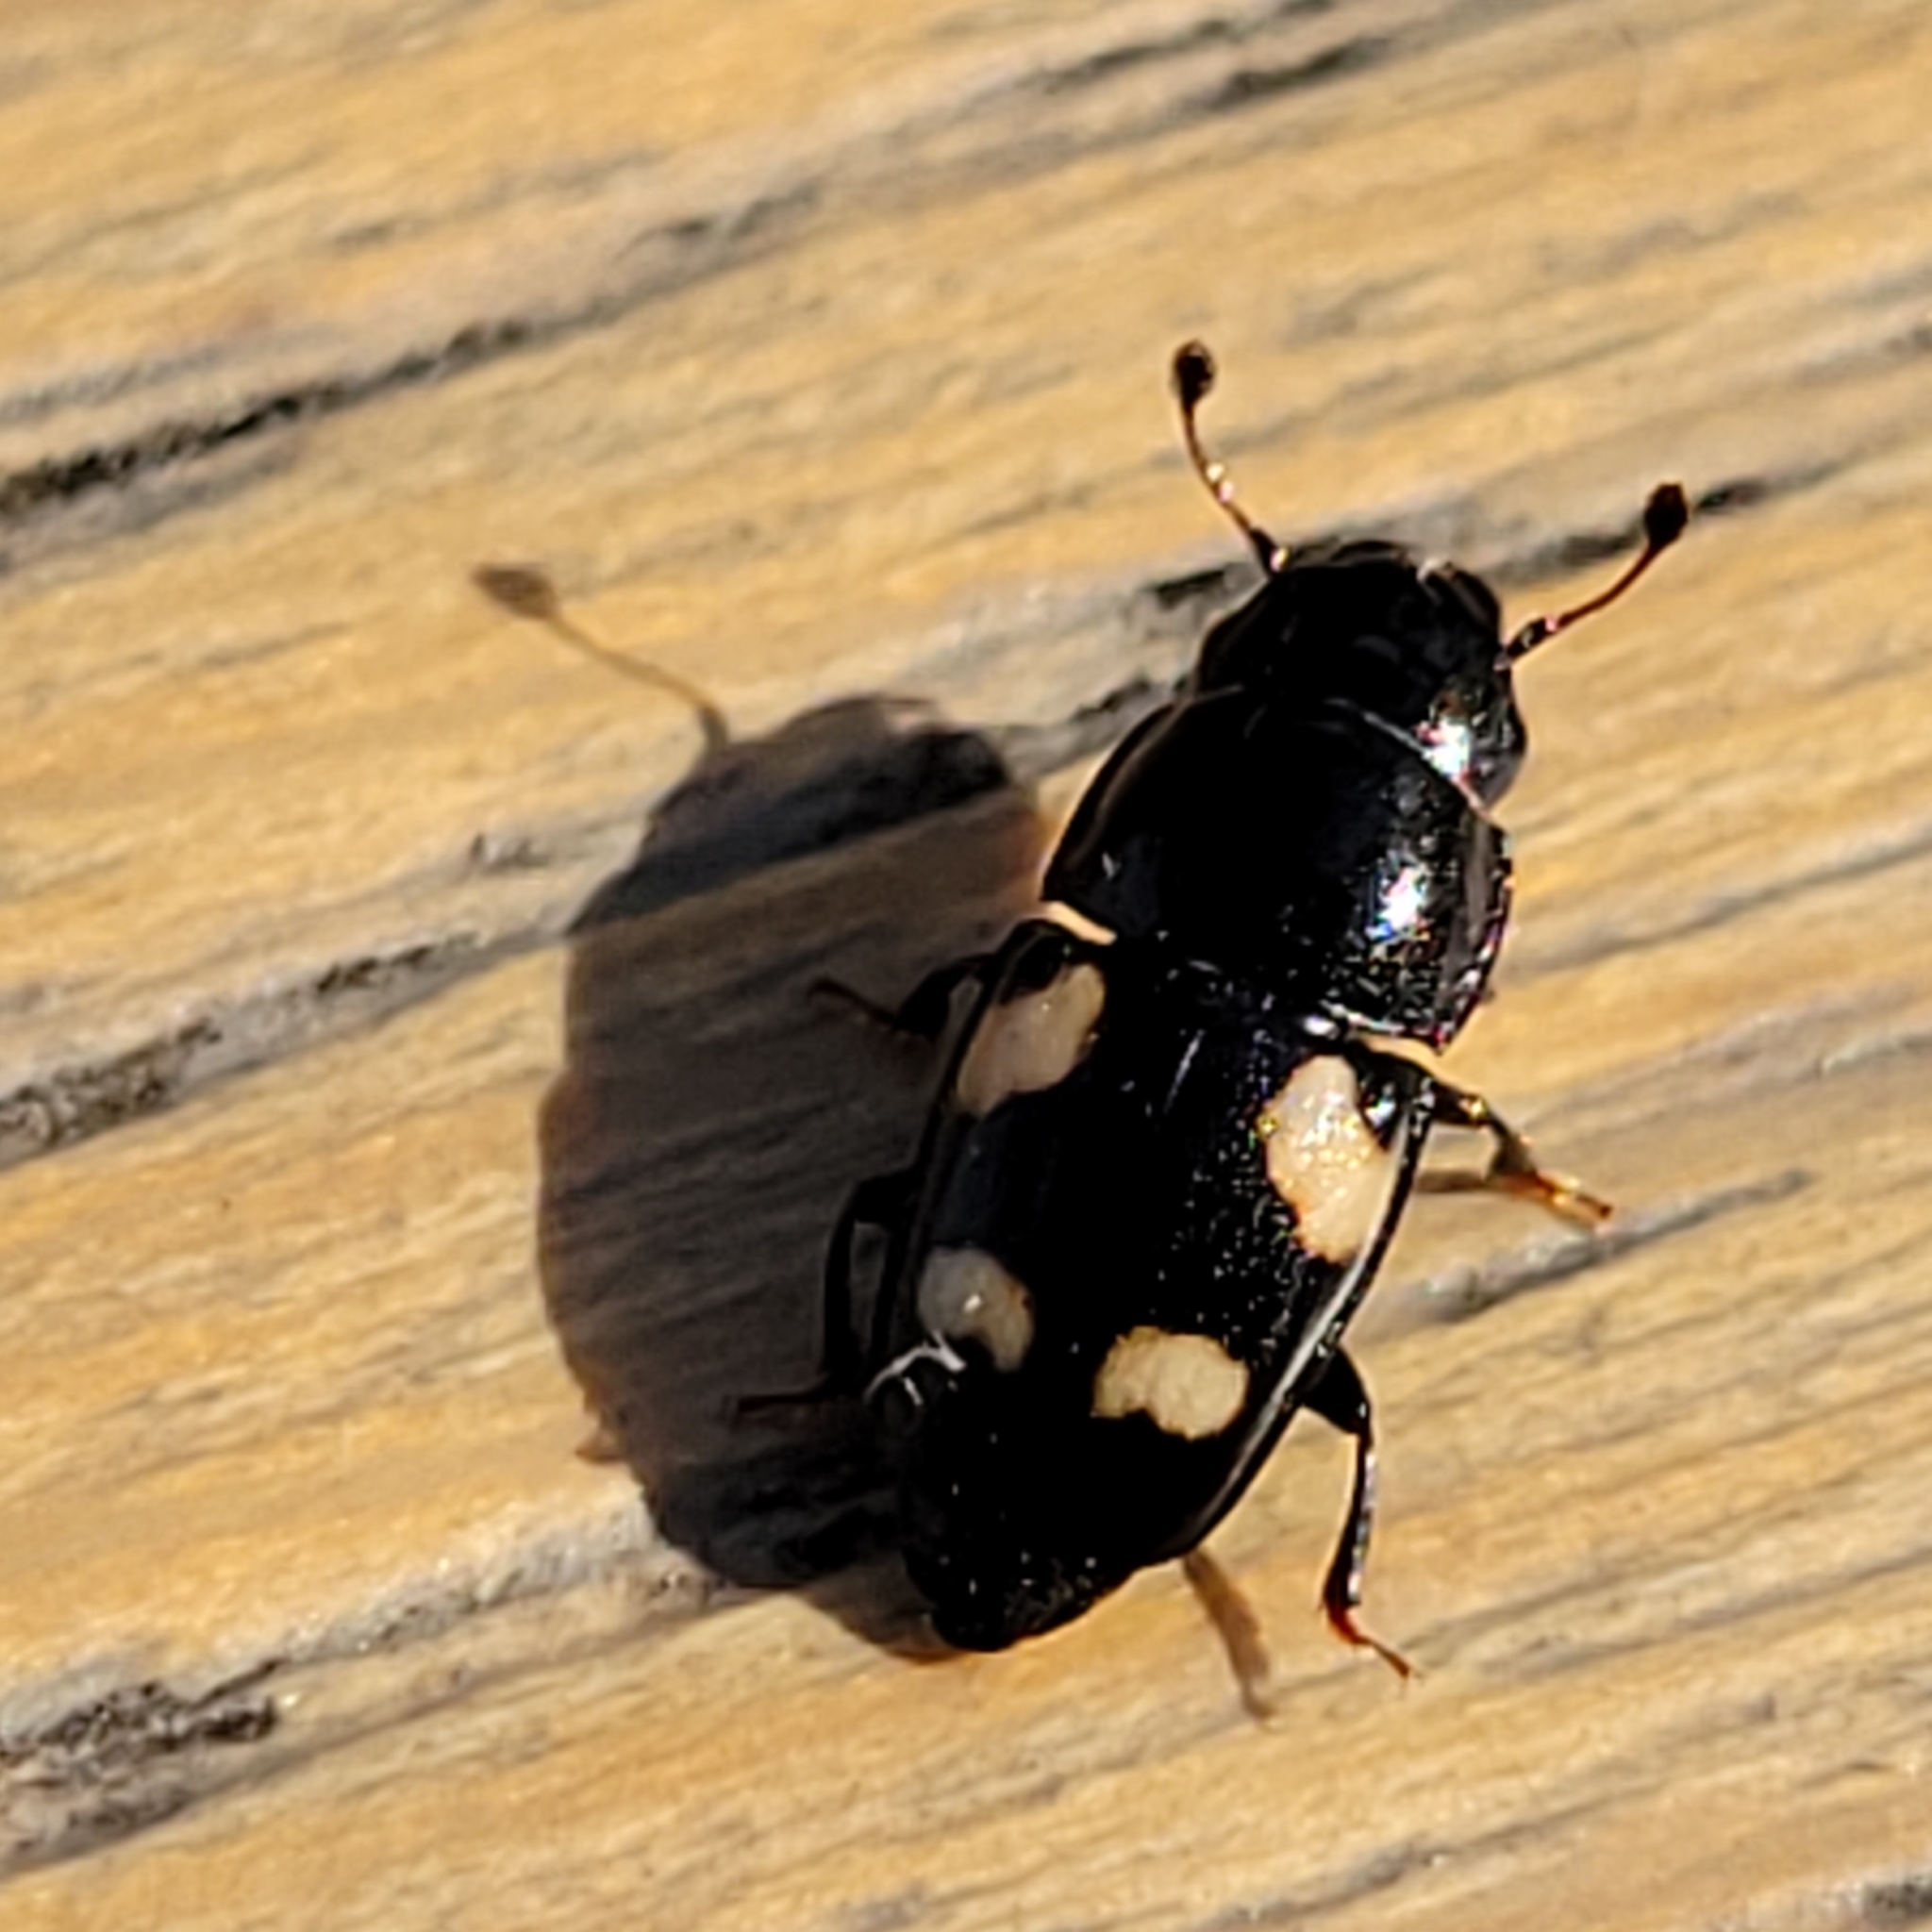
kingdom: Animalia
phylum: Arthropoda
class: Insecta
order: Coleoptera
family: Nitidulidae
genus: Glischrochilus
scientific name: Glischrochilus quadrisignatus
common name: Picnic beetle
